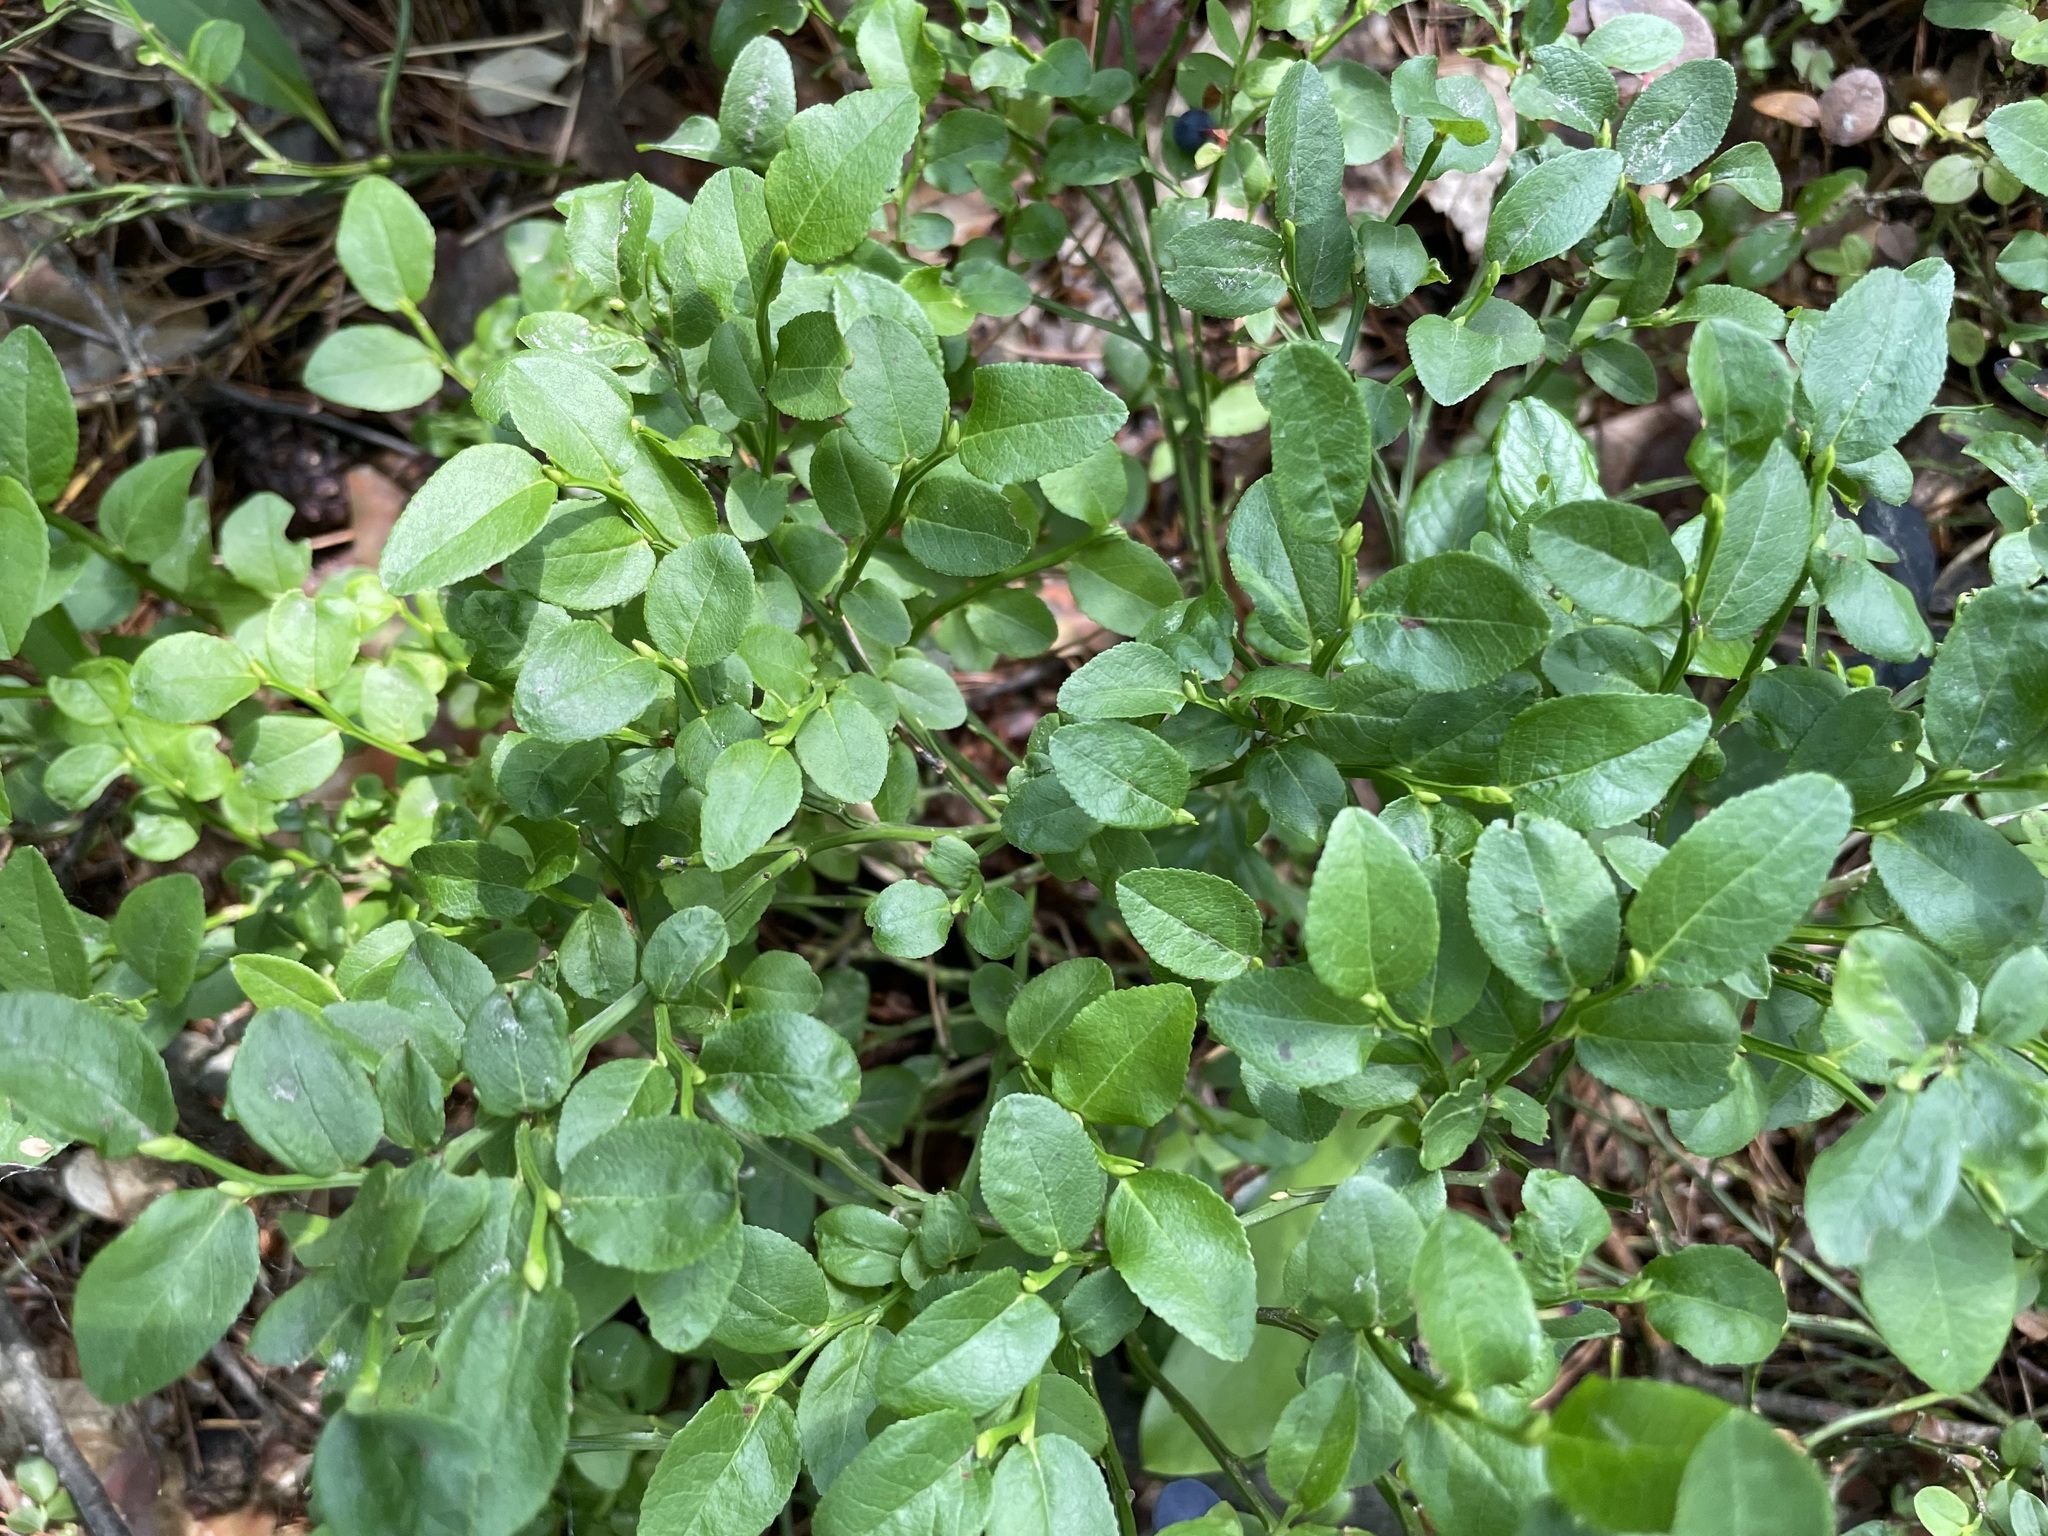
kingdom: Plantae
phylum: Tracheophyta
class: Magnoliopsida
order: Ericales
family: Ericaceae
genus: Vaccinium
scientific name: Vaccinium myrtillus
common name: Bilberry
